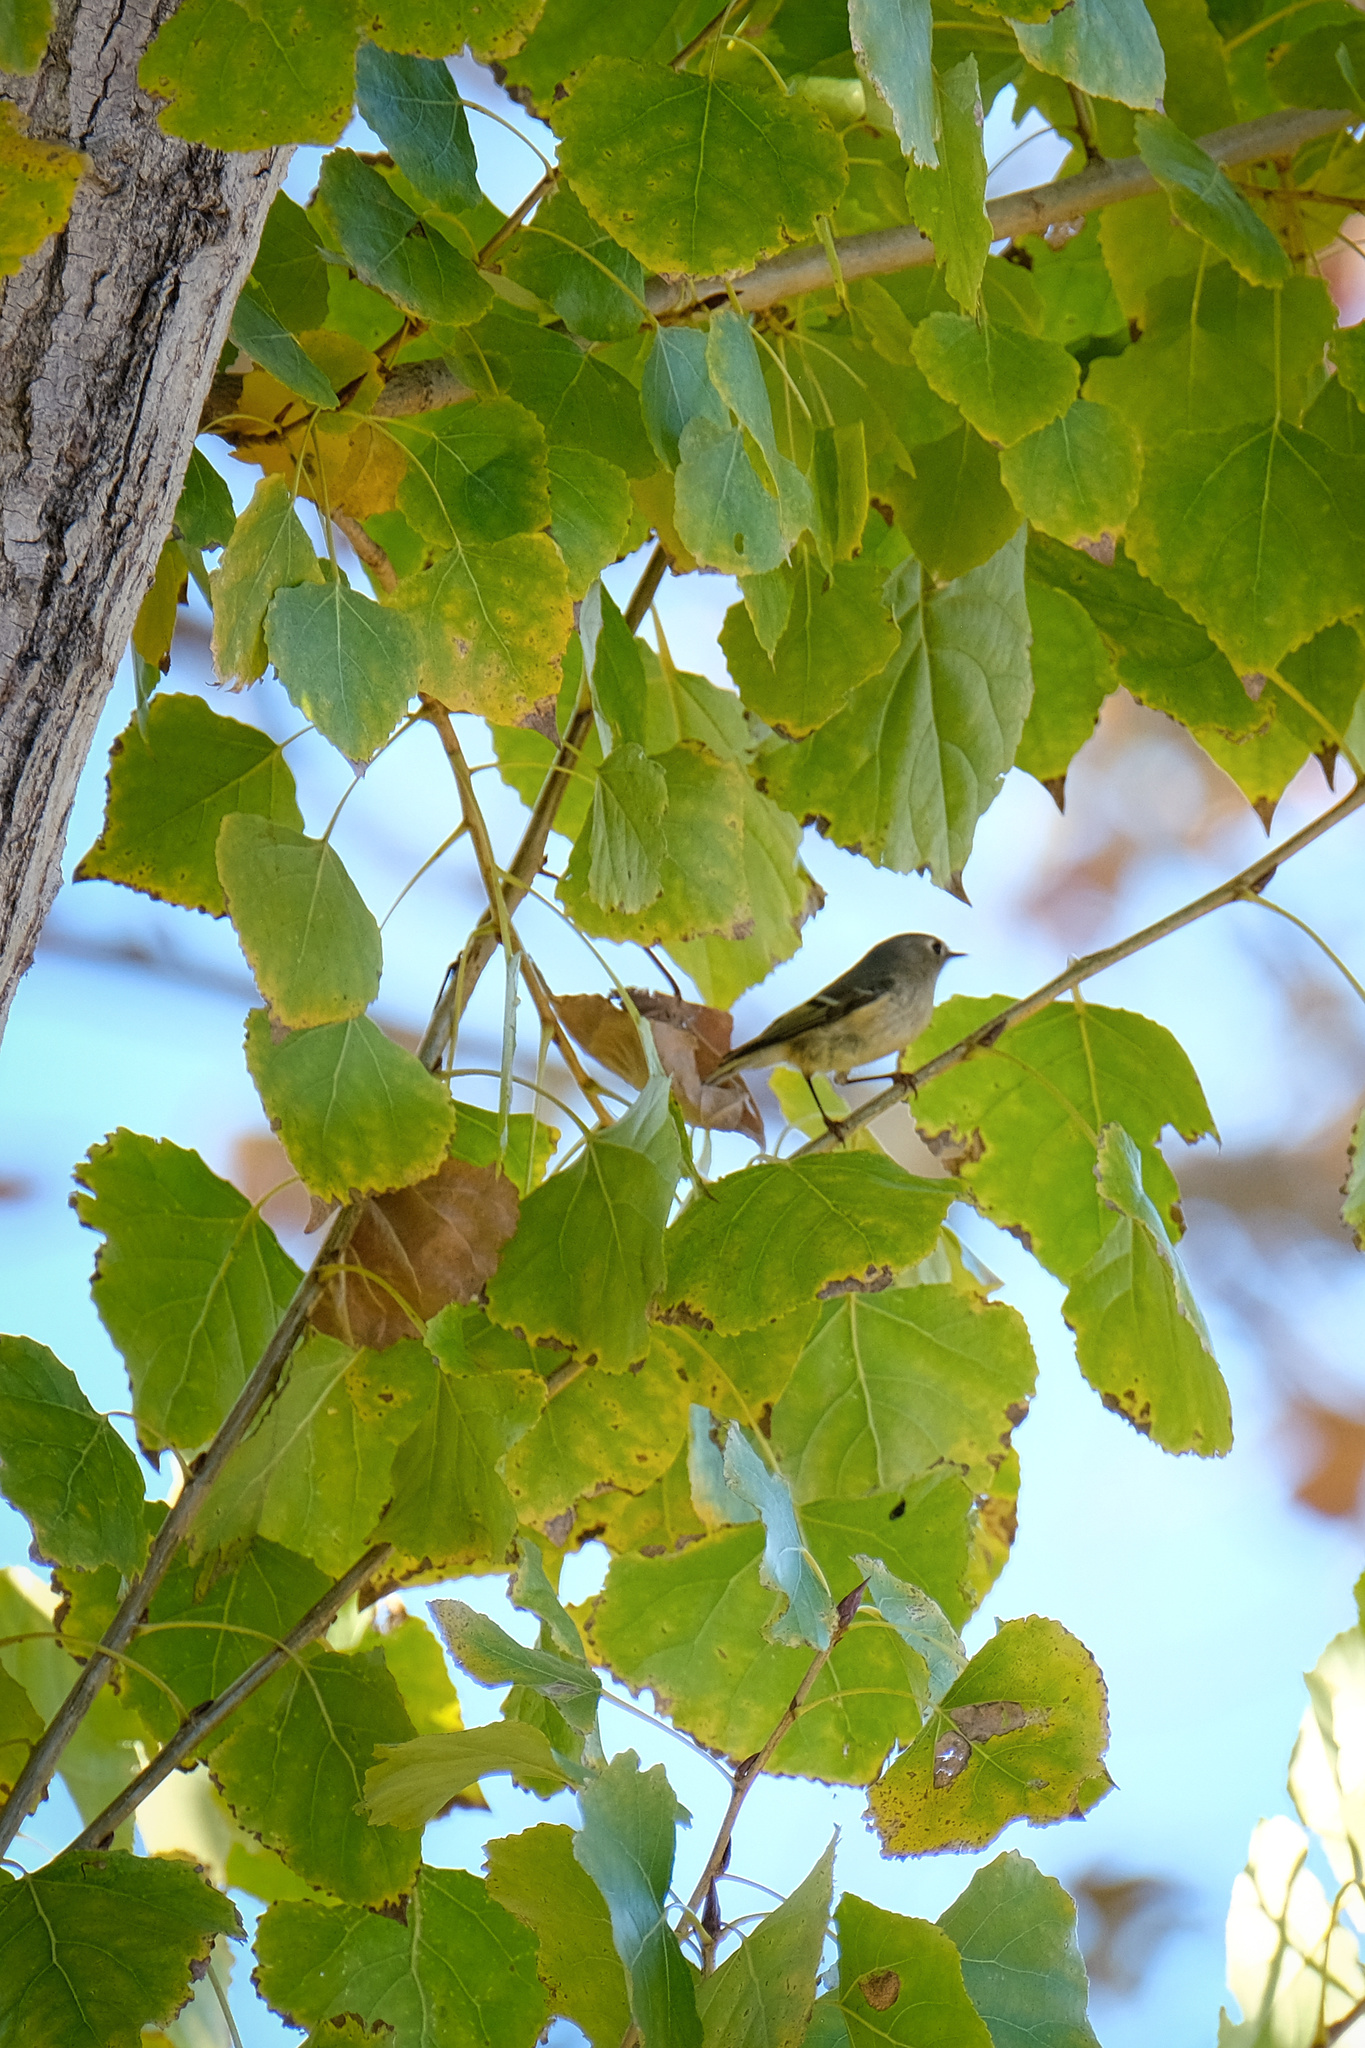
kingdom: Animalia
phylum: Chordata
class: Aves
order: Passeriformes
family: Regulidae
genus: Regulus
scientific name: Regulus calendula
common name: Ruby-crowned kinglet
